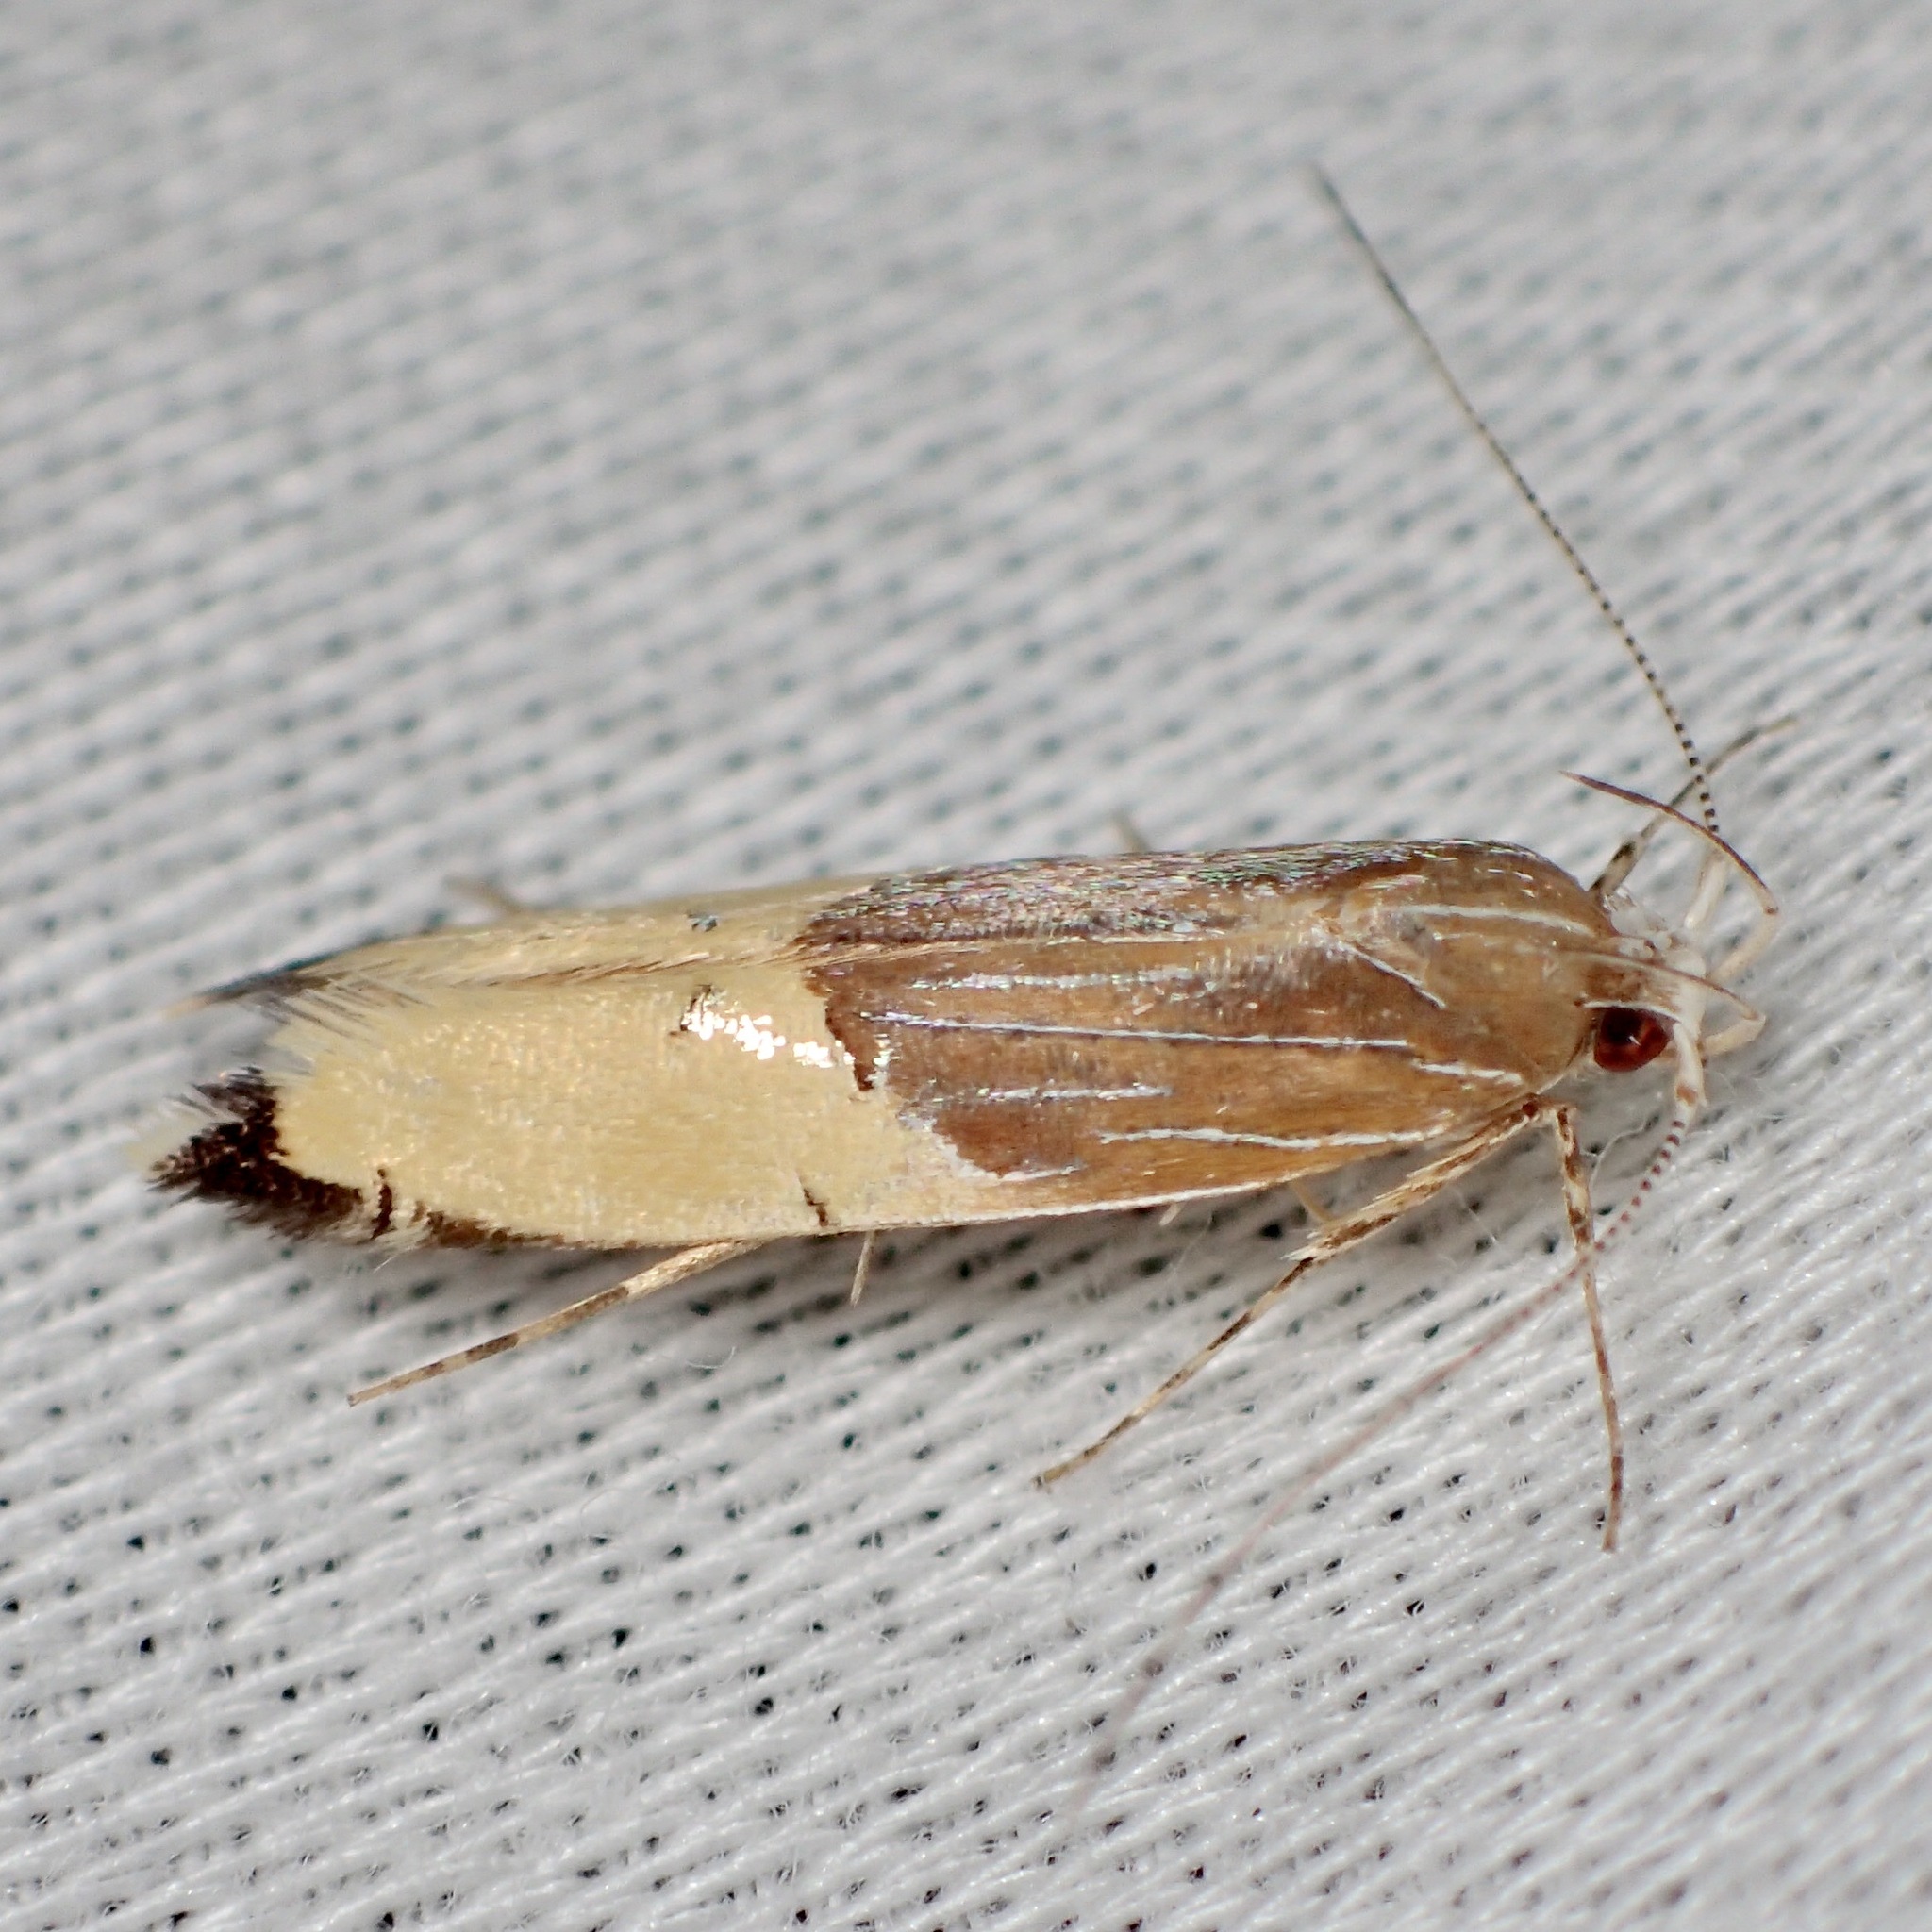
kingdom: Animalia
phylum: Arthropoda
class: Insecta
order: Lepidoptera
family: Cosmopterigidae
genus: Labdia
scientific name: Labdia deliciosella
